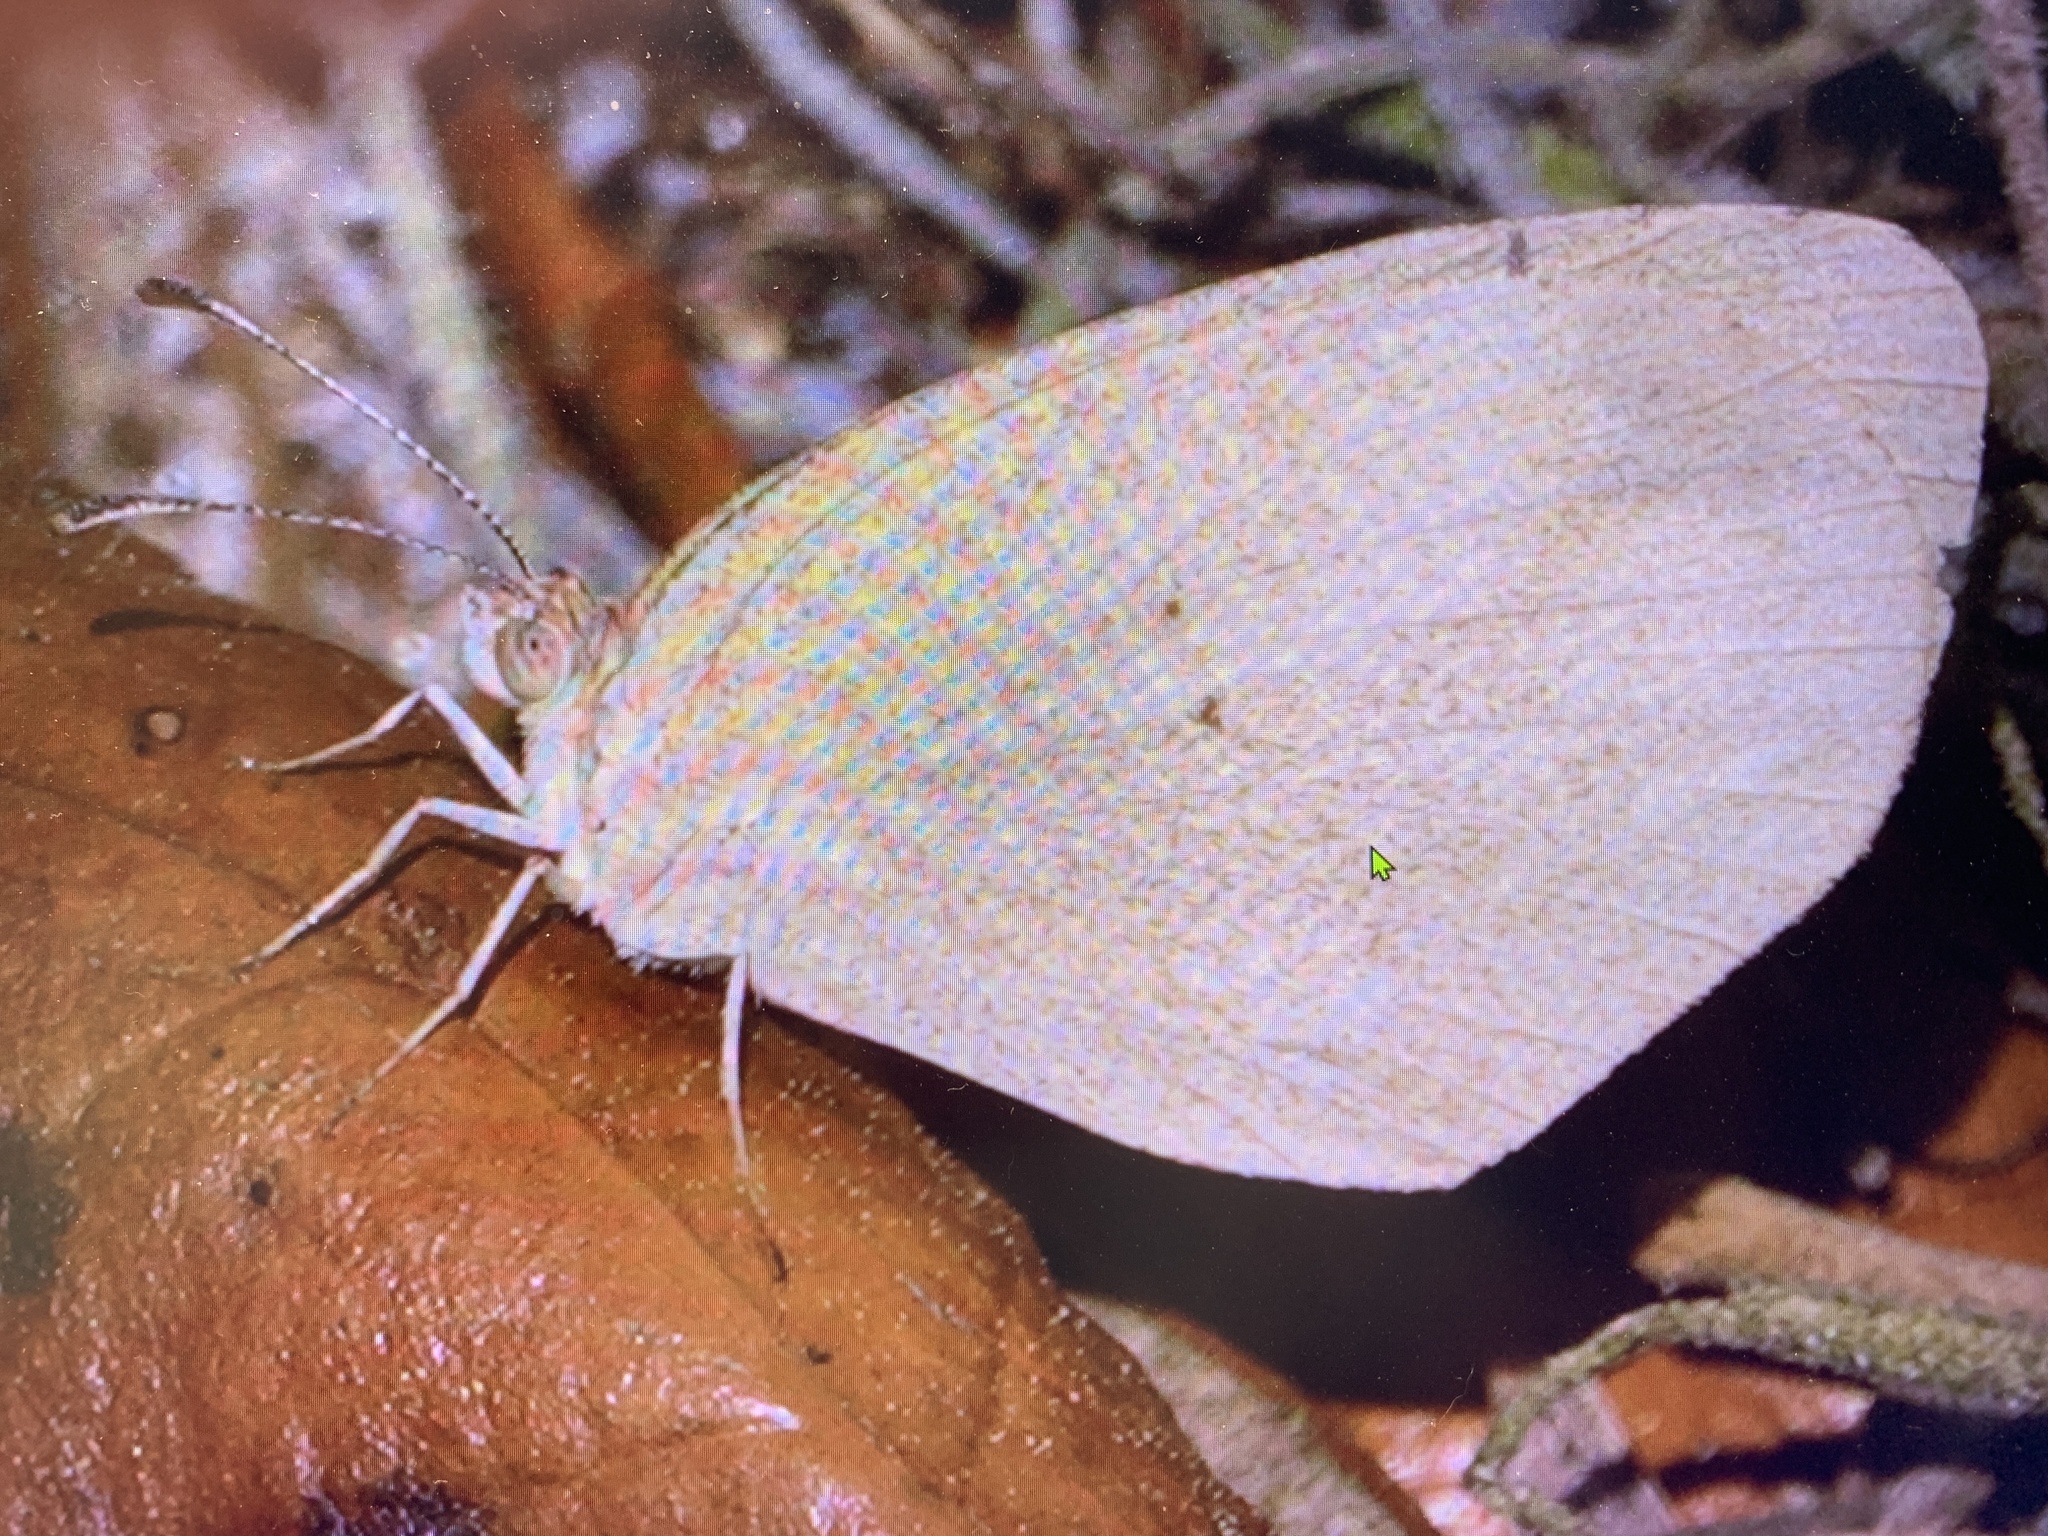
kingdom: Animalia
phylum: Arthropoda
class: Insecta
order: Lepidoptera
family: Pieridae
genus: Eurema
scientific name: Eurema daira
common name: Barred sulphur
